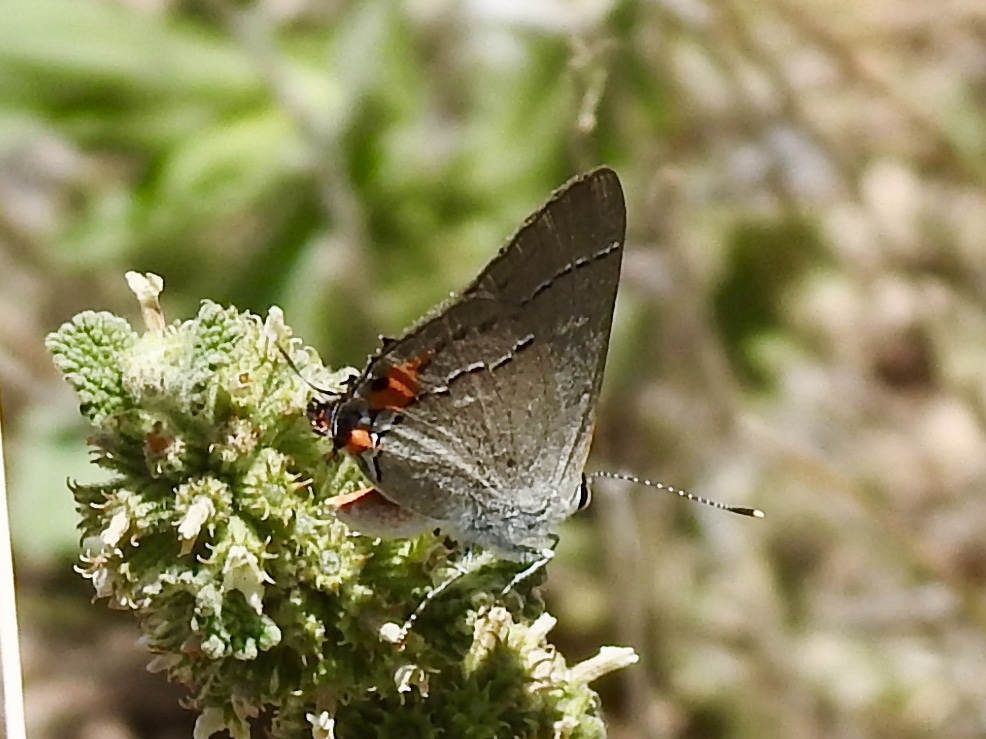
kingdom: Animalia
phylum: Arthropoda
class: Insecta
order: Lepidoptera
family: Lycaenidae
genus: Strymon
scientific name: Strymon melinus
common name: Gray hairstreak
